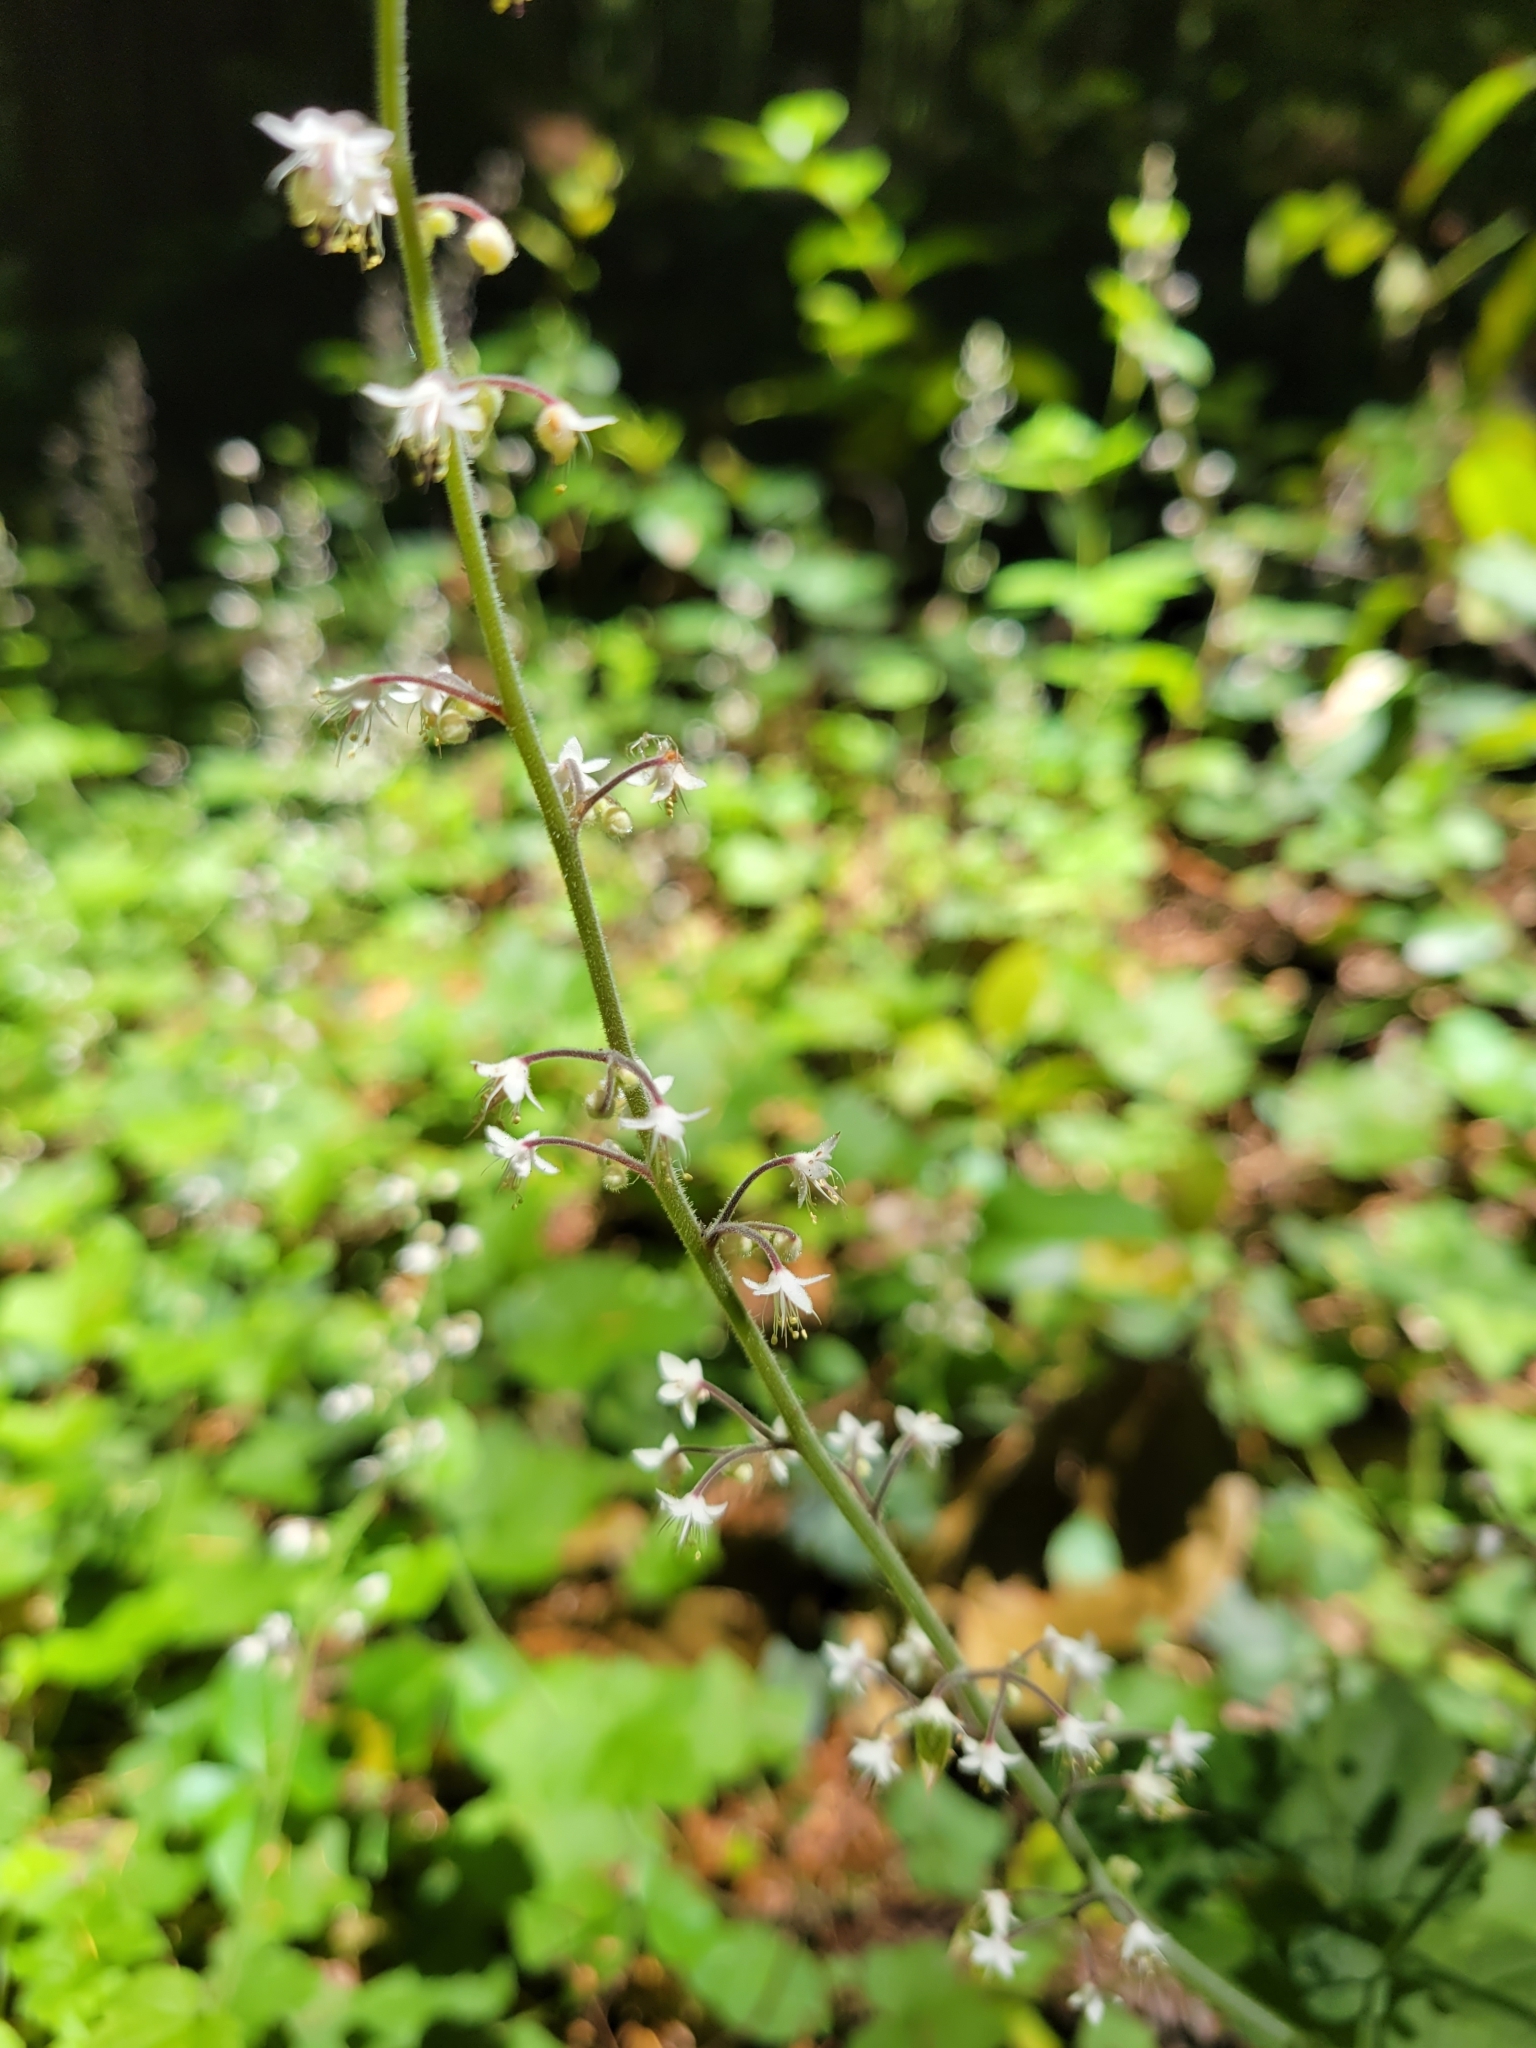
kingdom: Plantae
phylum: Tracheophyta
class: Magnoliopsida
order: Saxifragales
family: Saxifragaceae
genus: Tiarella
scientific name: Tiarella trifoliata
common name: Sugar-scoop
